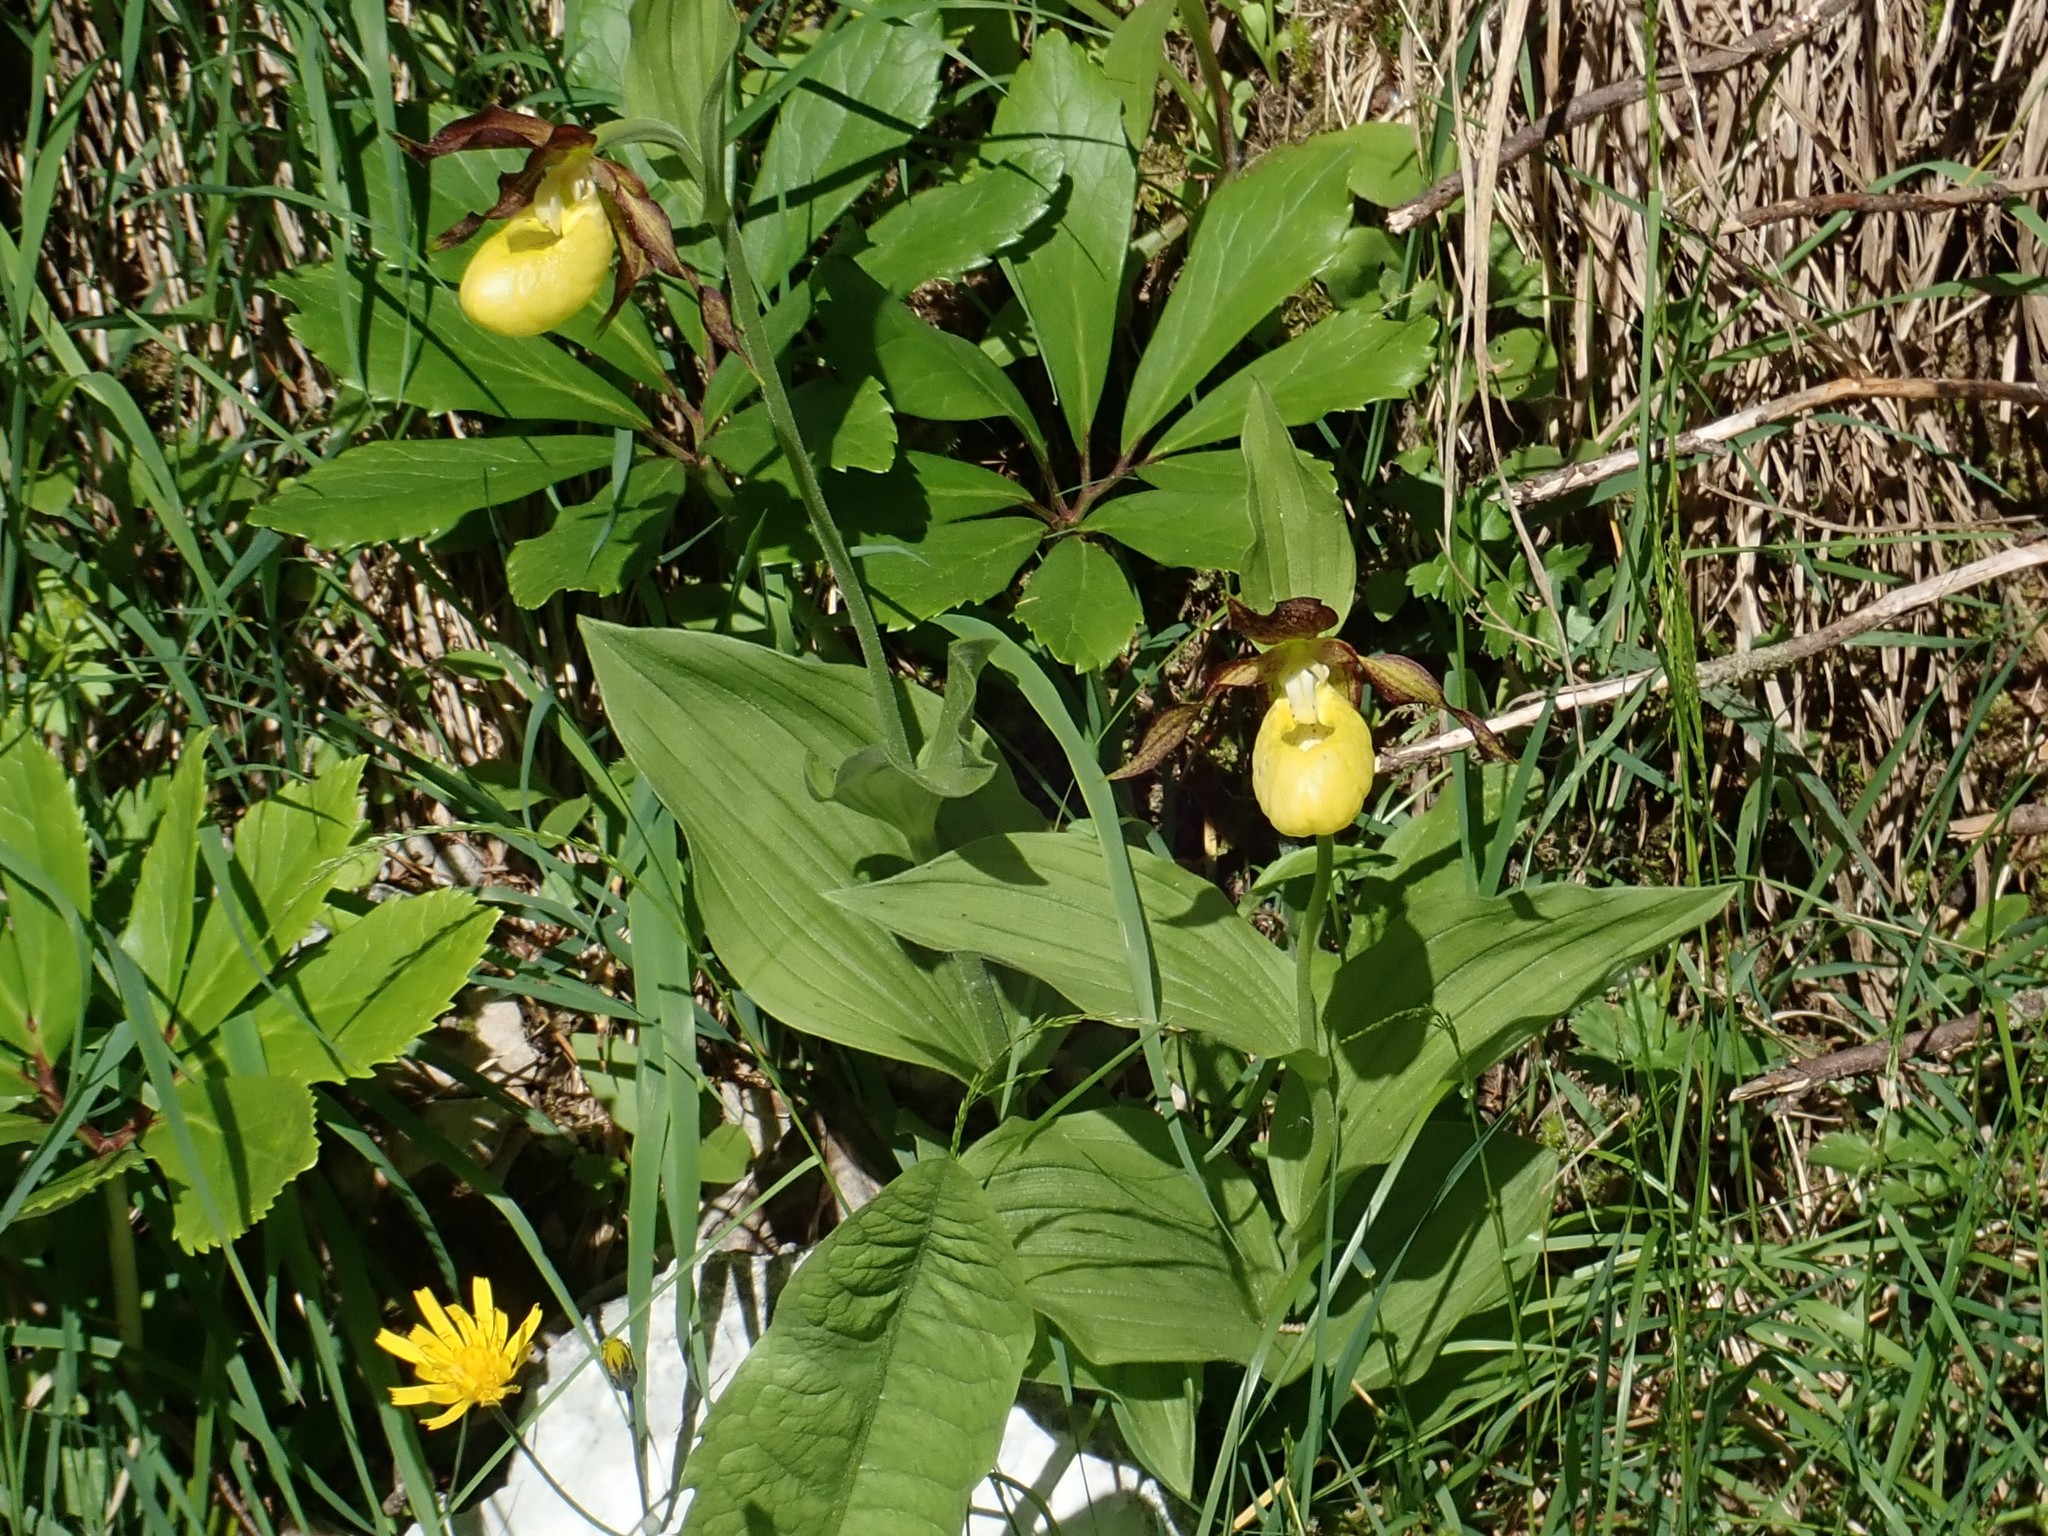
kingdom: Plantae
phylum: Tracheophyta
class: Liliopsida
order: Asparagales
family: Orchidaceae
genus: Cypripedium
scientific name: Cypripedium calceolus
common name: Lady's-slipper
